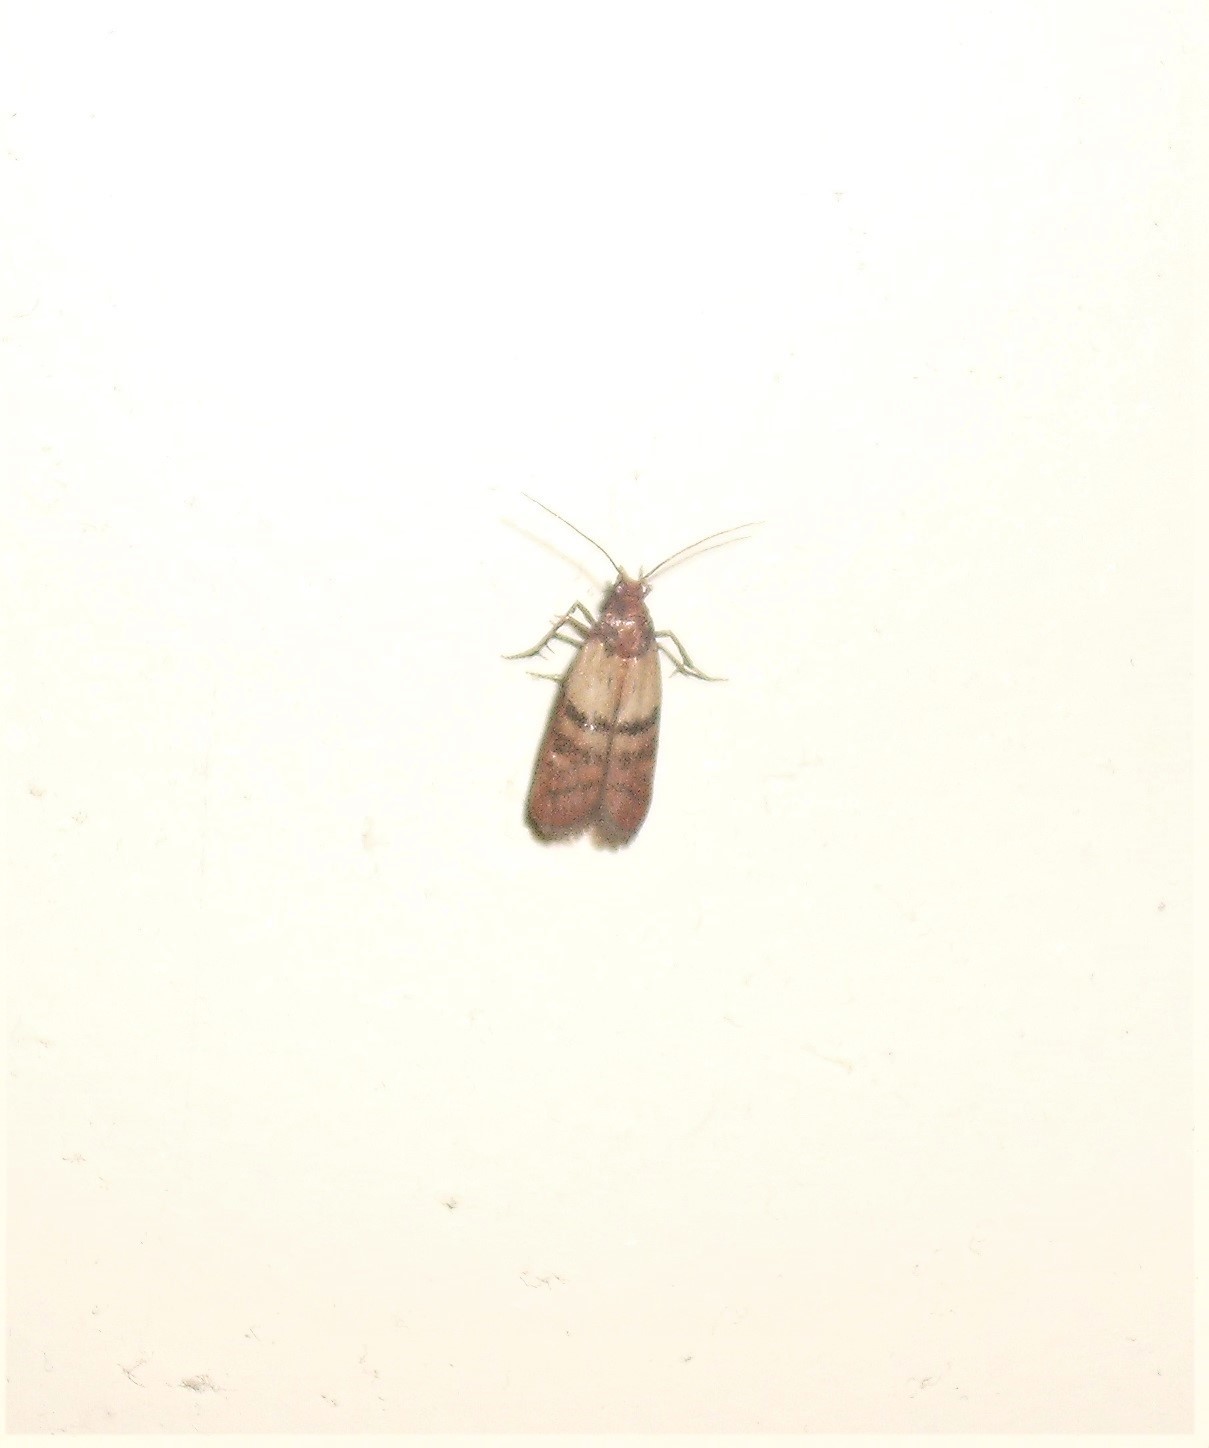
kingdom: Animalia
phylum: Arthropoda
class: Insecta
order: Lepidoptera
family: Pyralidae
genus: Plodia
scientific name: Plodia interpunctella
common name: Indian meal moth
